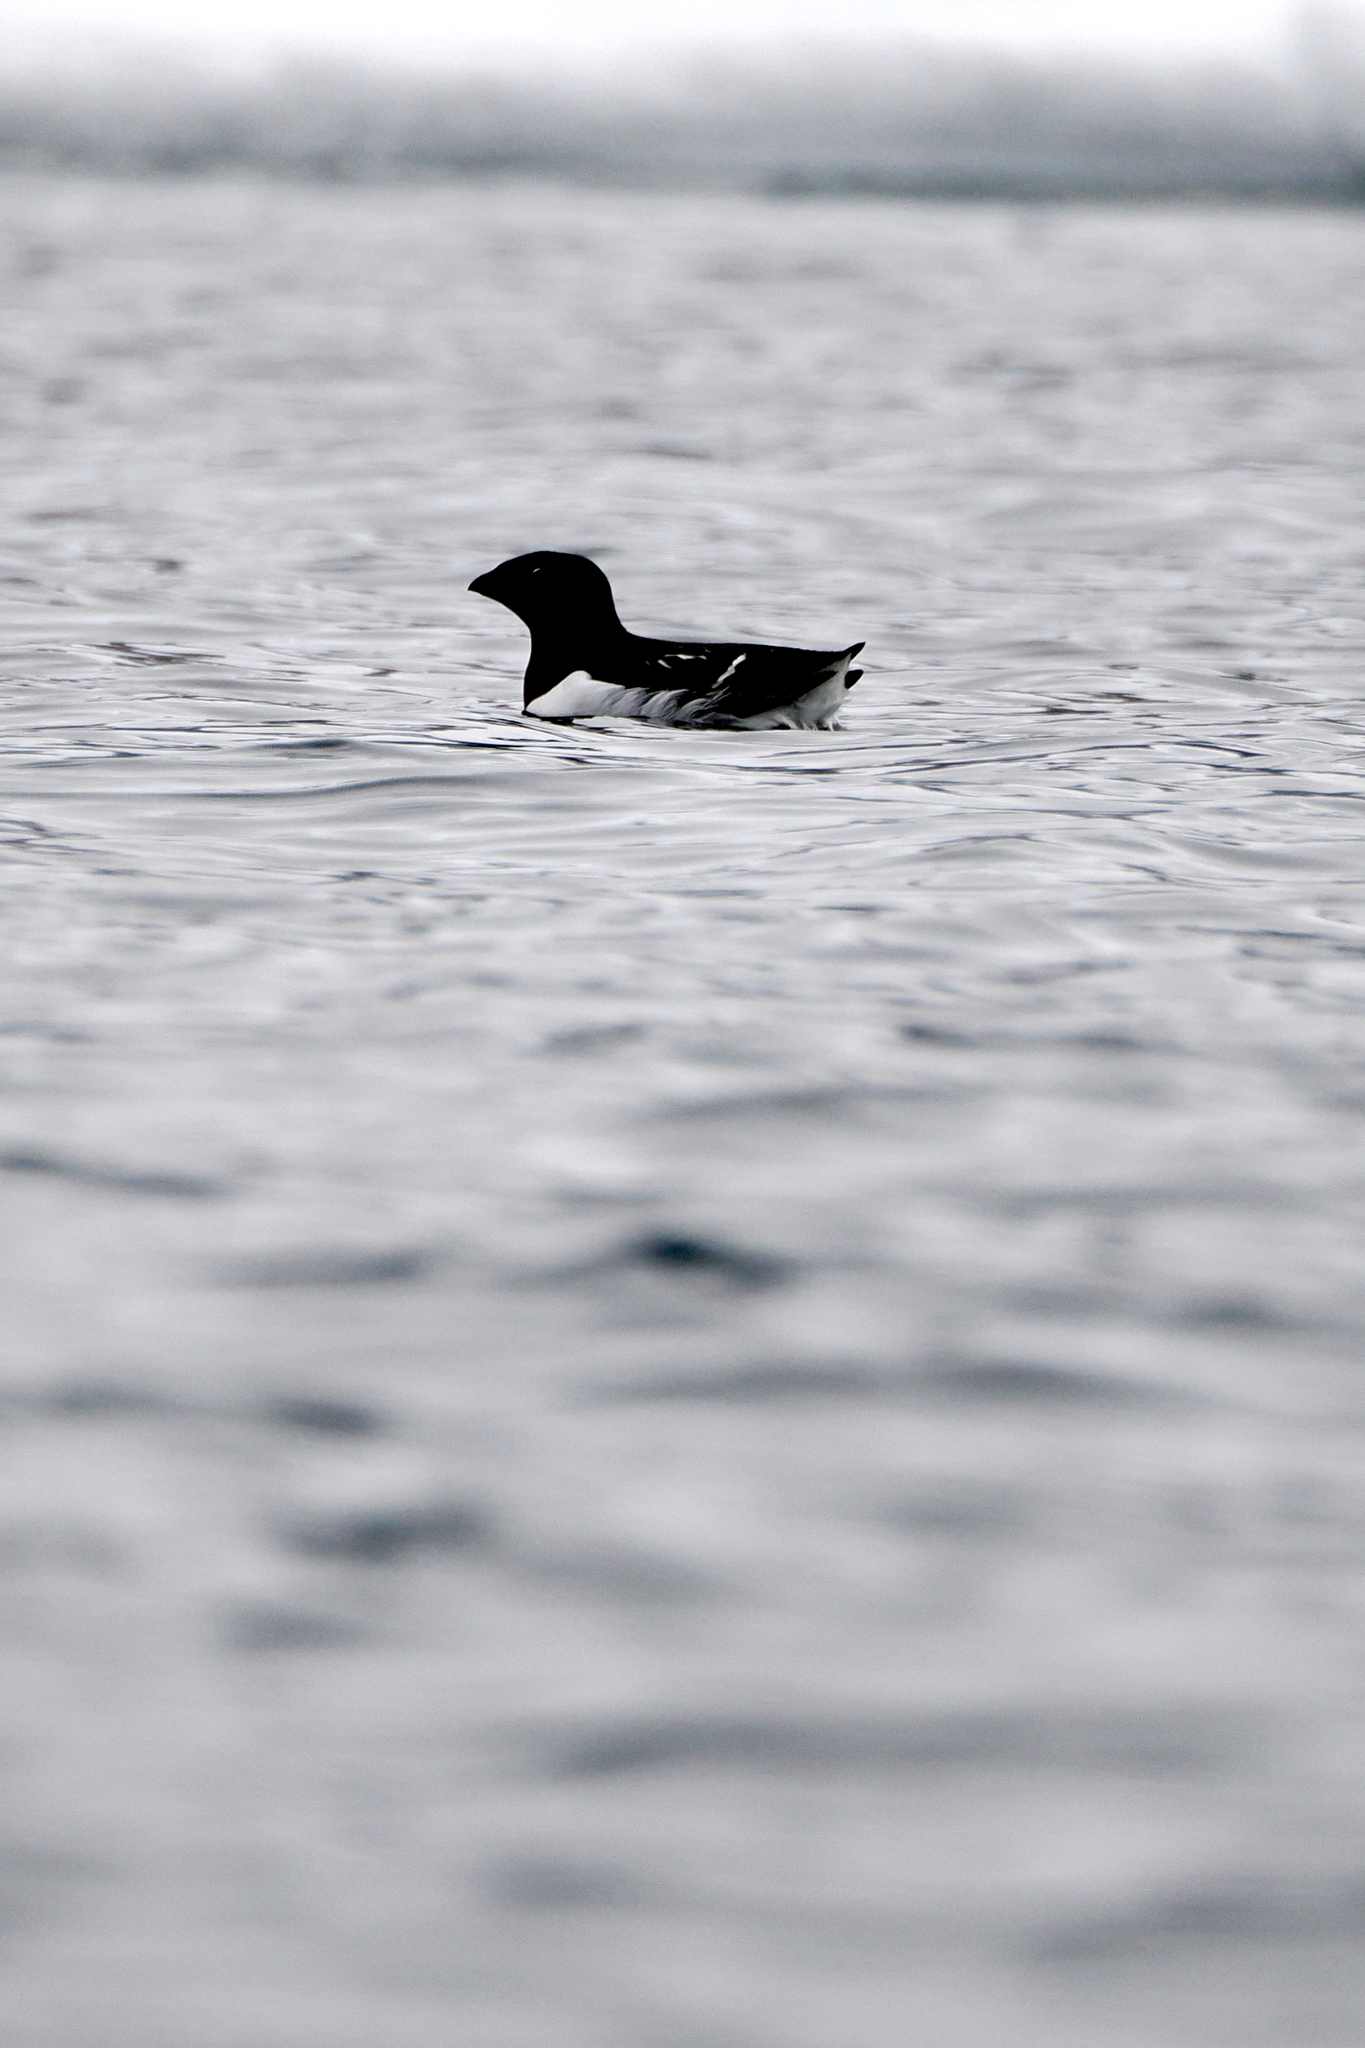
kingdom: Animalia
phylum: Chordata
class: Aves
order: Charadriiformes
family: Alcidae
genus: Alle
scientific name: Alle alle
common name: Little auk
